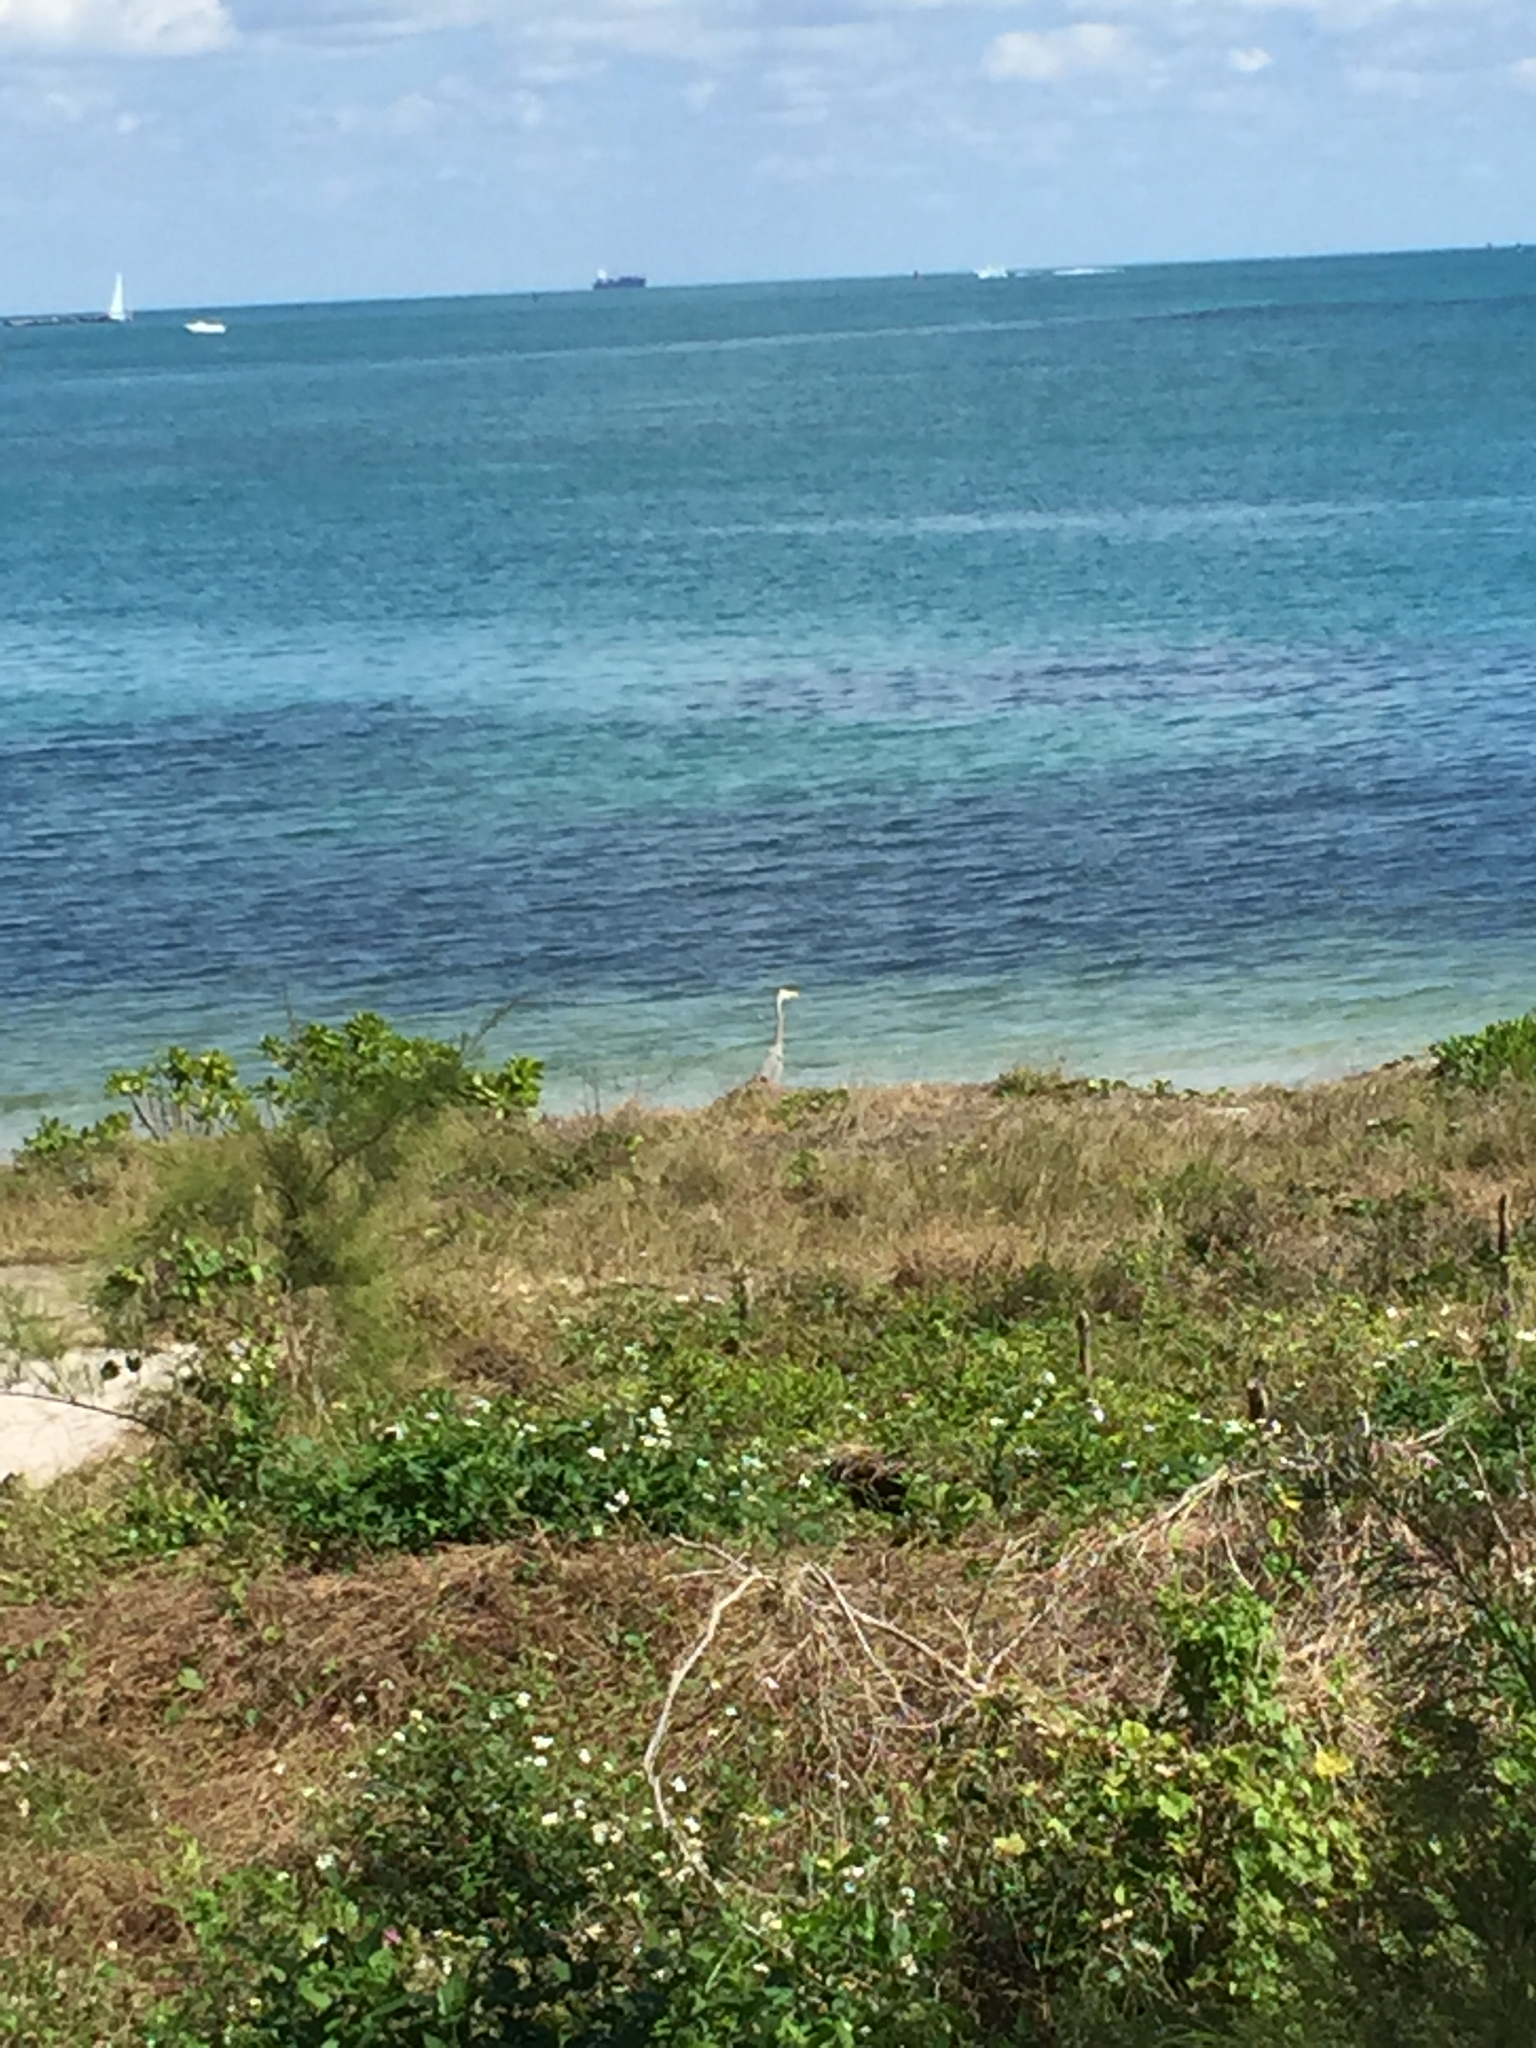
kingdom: Animalia
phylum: Chordata
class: Aves
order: Pelecaniformes
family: Ardeidae
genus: Ardea
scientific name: Ardea herodias
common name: Great blue heron
